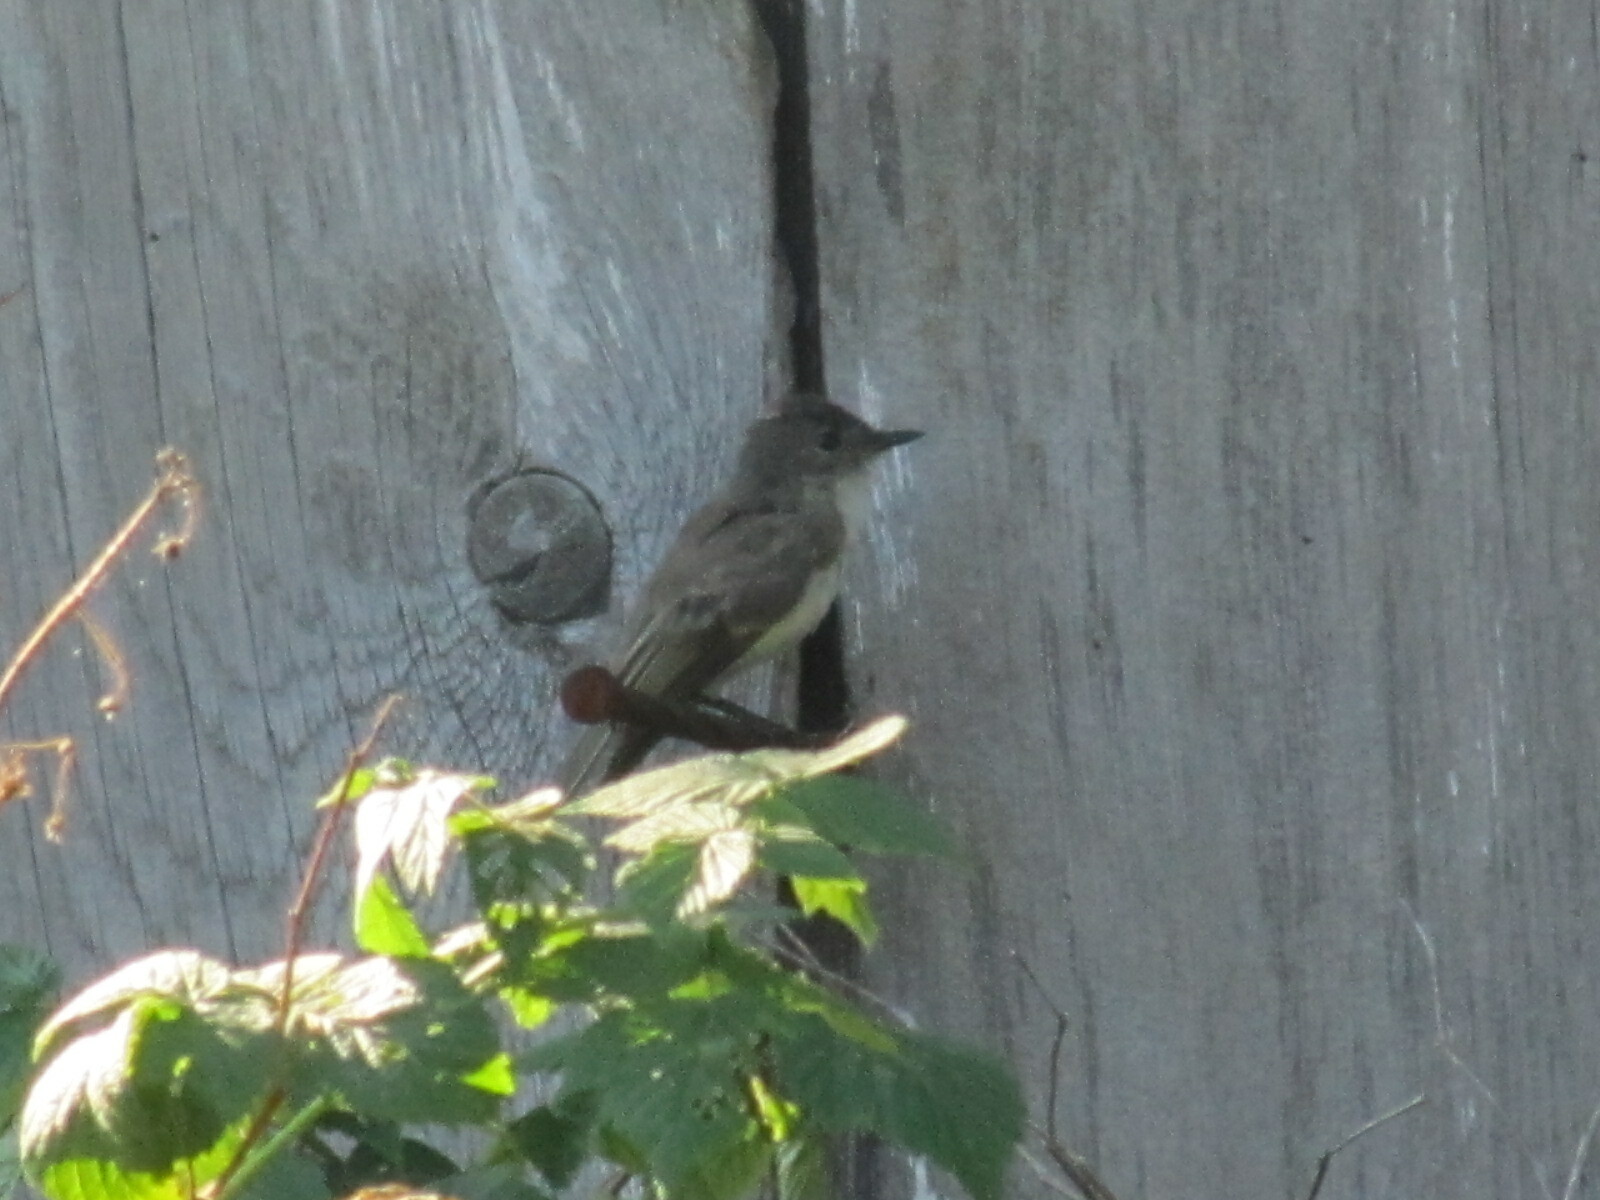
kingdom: Animalia
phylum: Chordata
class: Aves
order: Passeriformes
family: Tyrannidae
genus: Sayornis
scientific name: Sayornis phoebe
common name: Eastern phoebe
